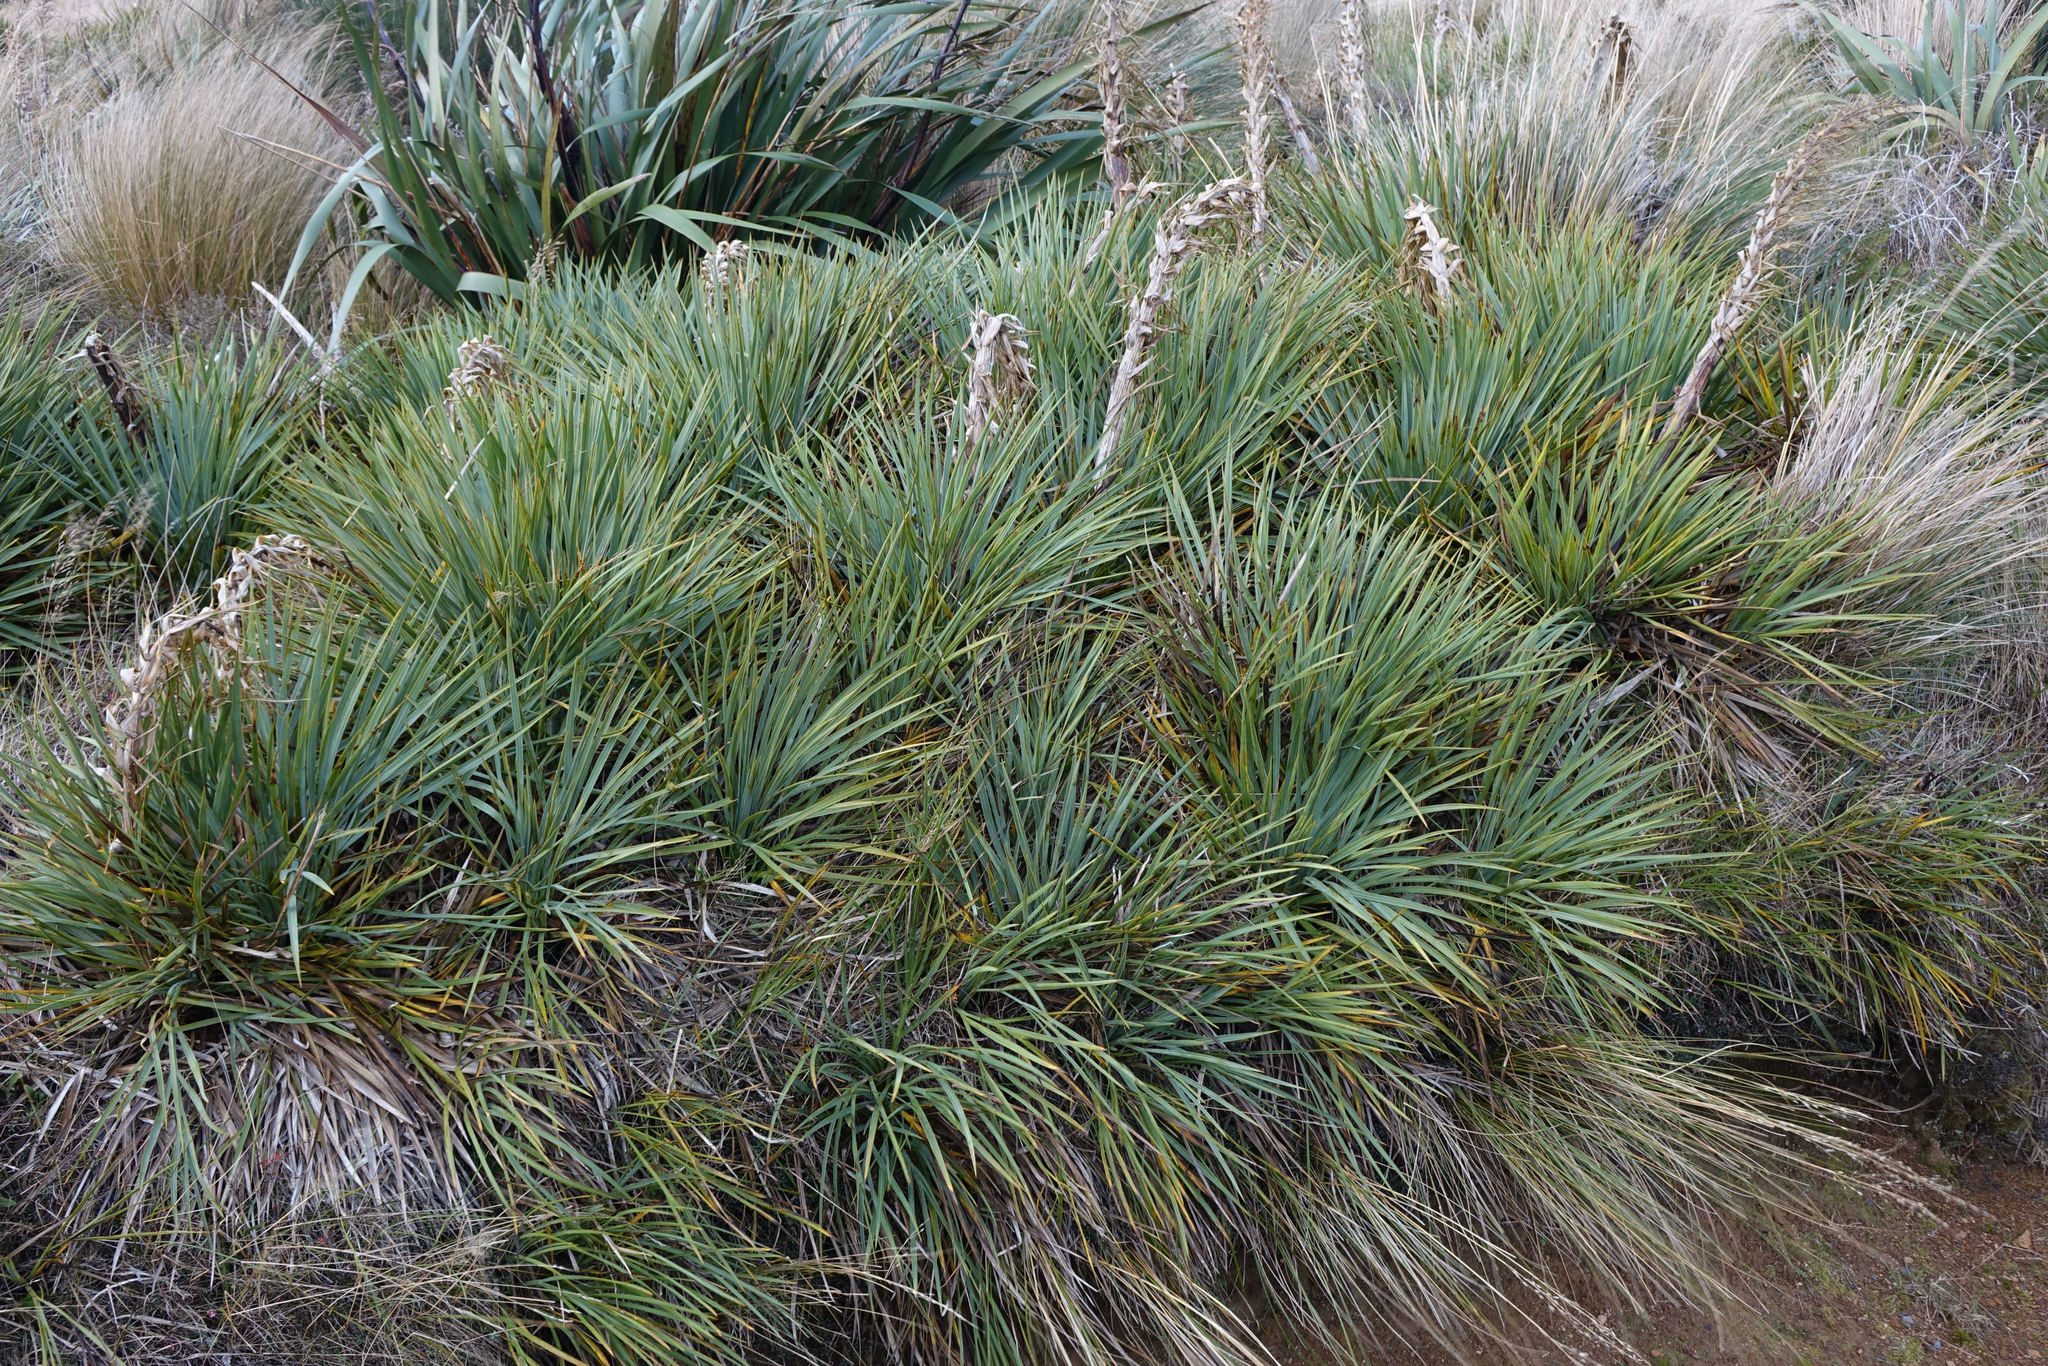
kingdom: Plantae
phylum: Tracheophyta
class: Magnoliopsida
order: Apiales
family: Apiaceae
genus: Aciphylla
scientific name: Aciphylla scott-thomsonii
